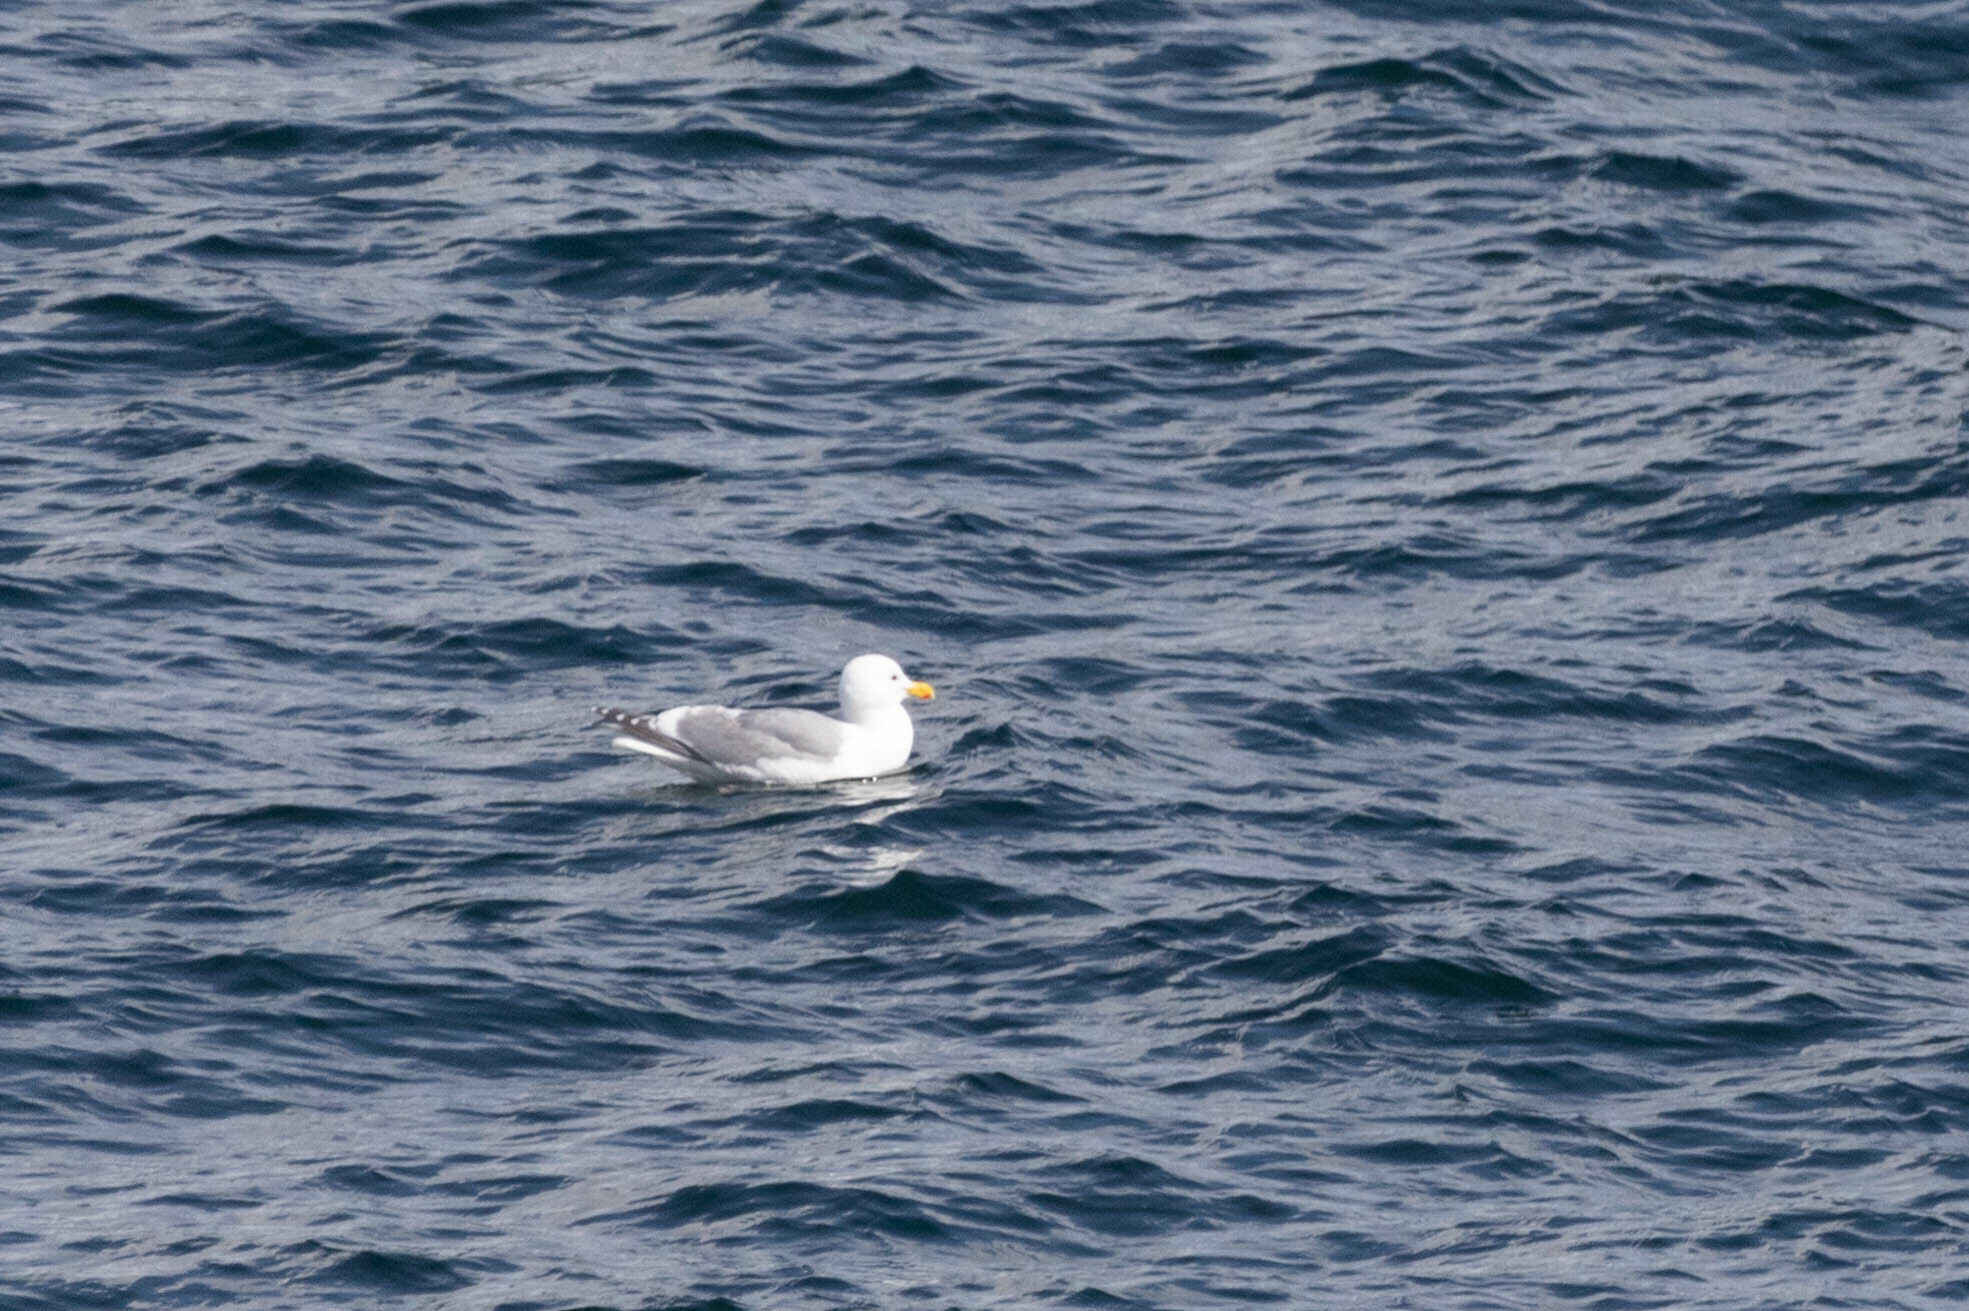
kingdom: Animalia
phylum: Chordata
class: Aves
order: Charadriiformes
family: Laridae
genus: Larus
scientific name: Larus
